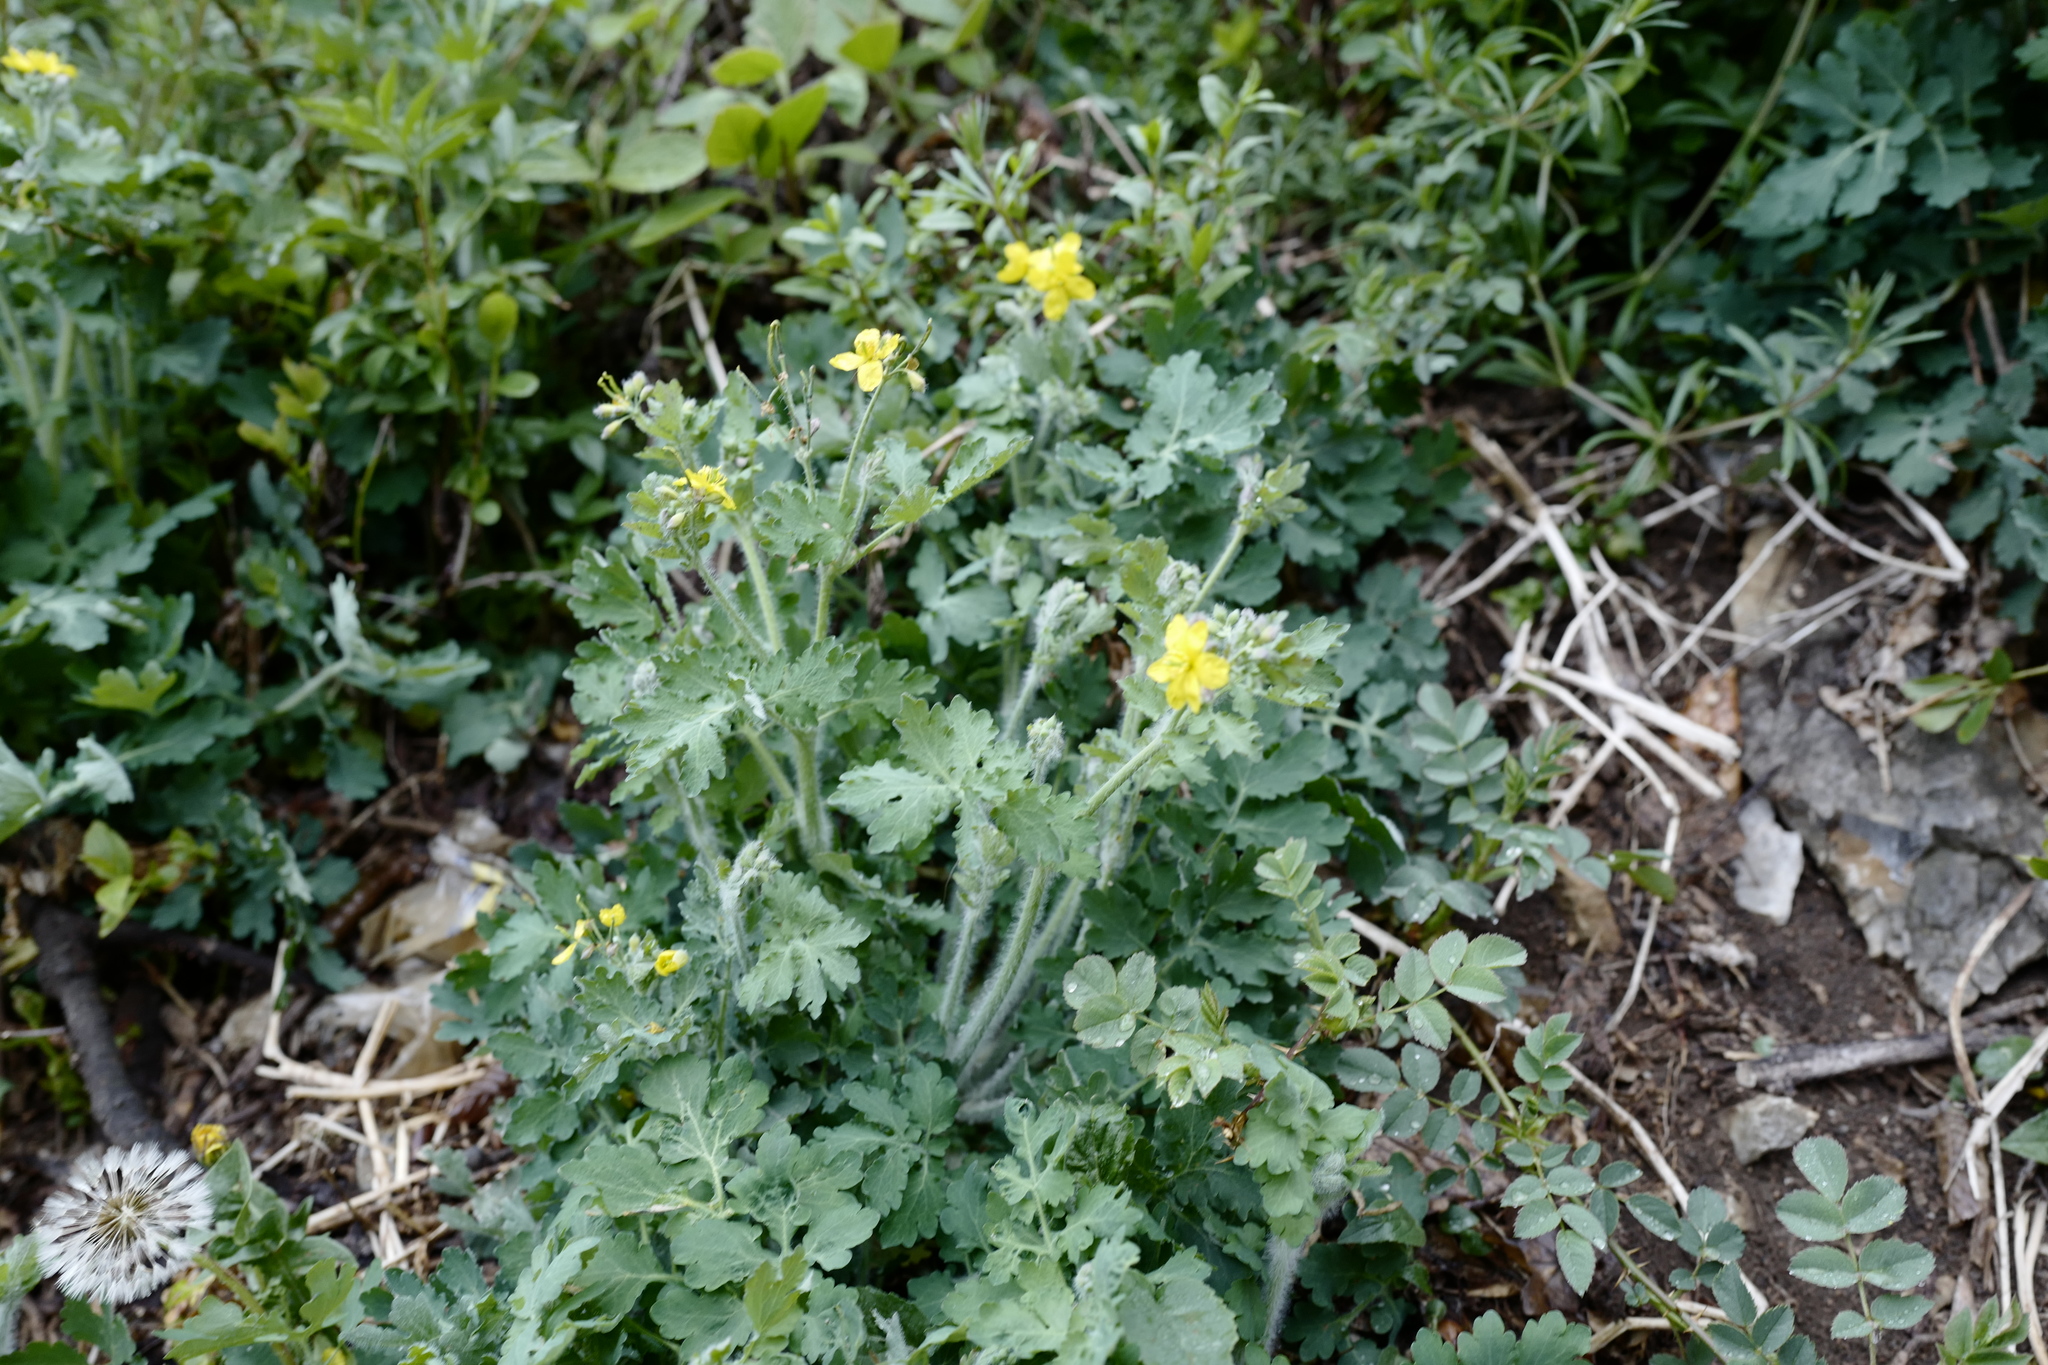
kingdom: Plantae
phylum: Tracheophyta
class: Magnoliopsida
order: Ranunculales
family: Papaveraceae
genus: Chelidonium
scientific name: Chelidonium majus
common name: Greater celandine
